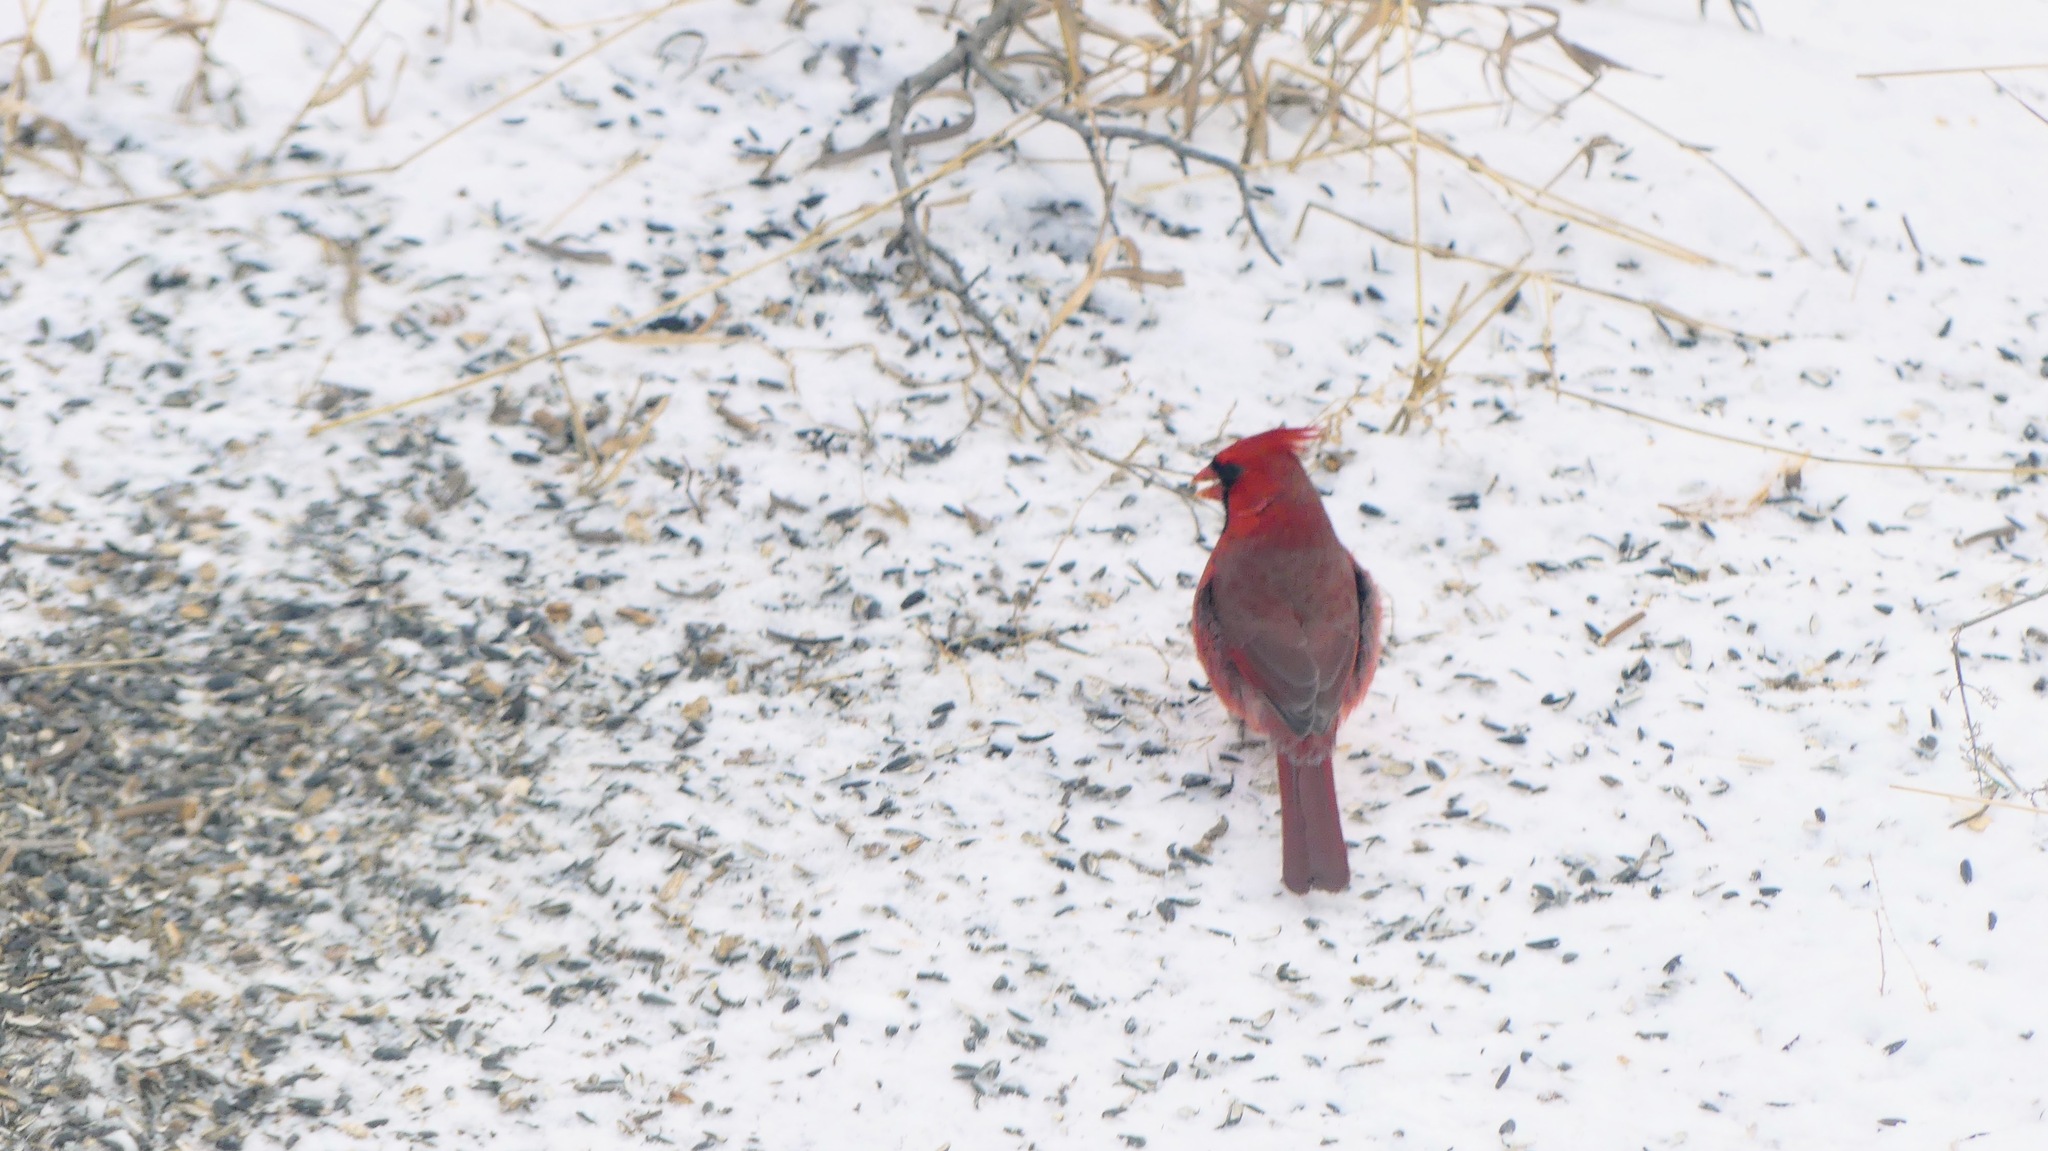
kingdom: Animalia
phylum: Chordata
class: Aves
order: Passeriformes
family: Cardinalidae
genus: Cardinalis
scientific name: Cardinalis cardinalis
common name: Northern cardinal
